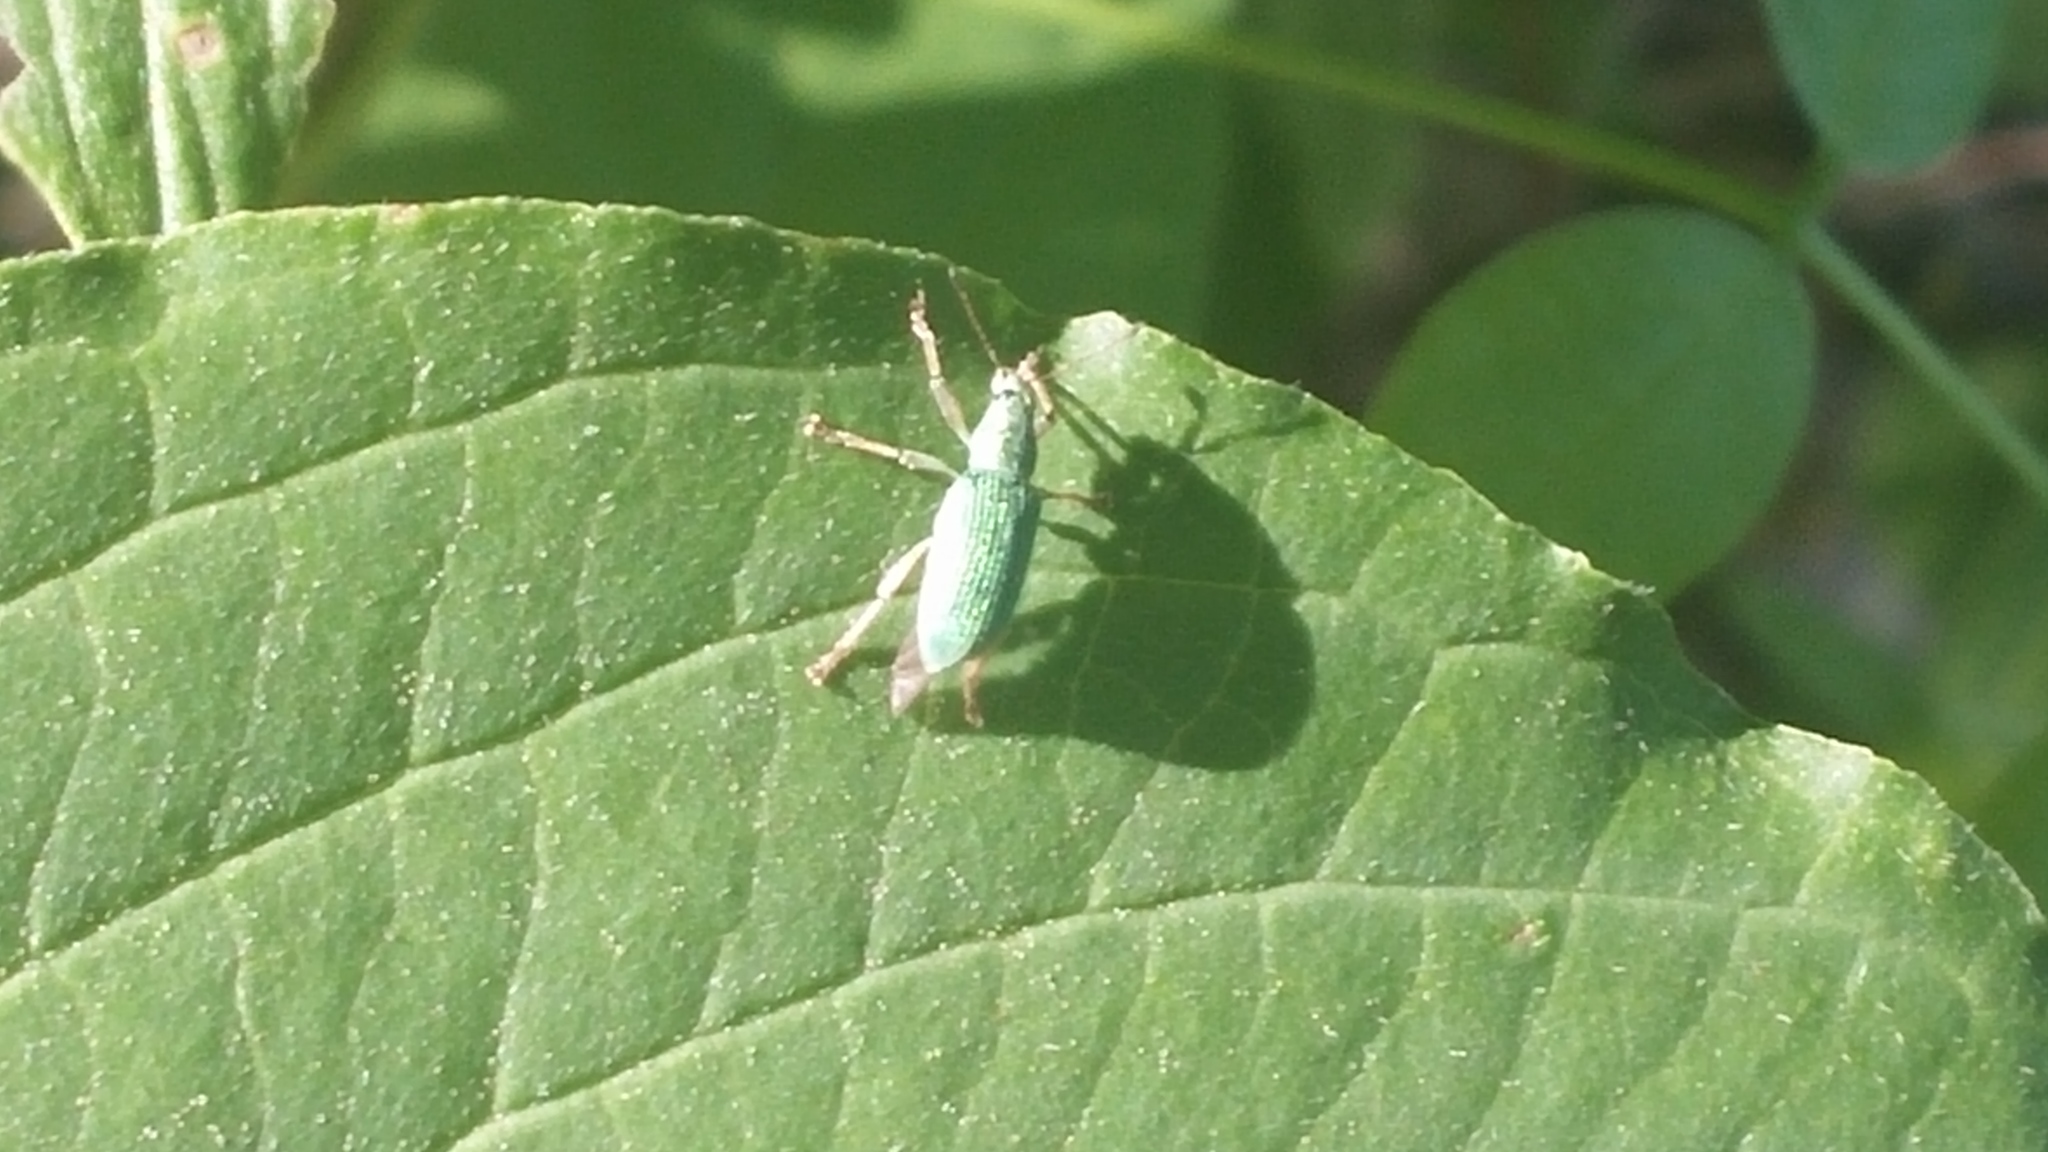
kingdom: Animalia
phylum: Arthropoda
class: Insecta
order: Coleoptera
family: Curculionidae
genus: Polydrusus
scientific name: Polydrusus formosus
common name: Weevil
